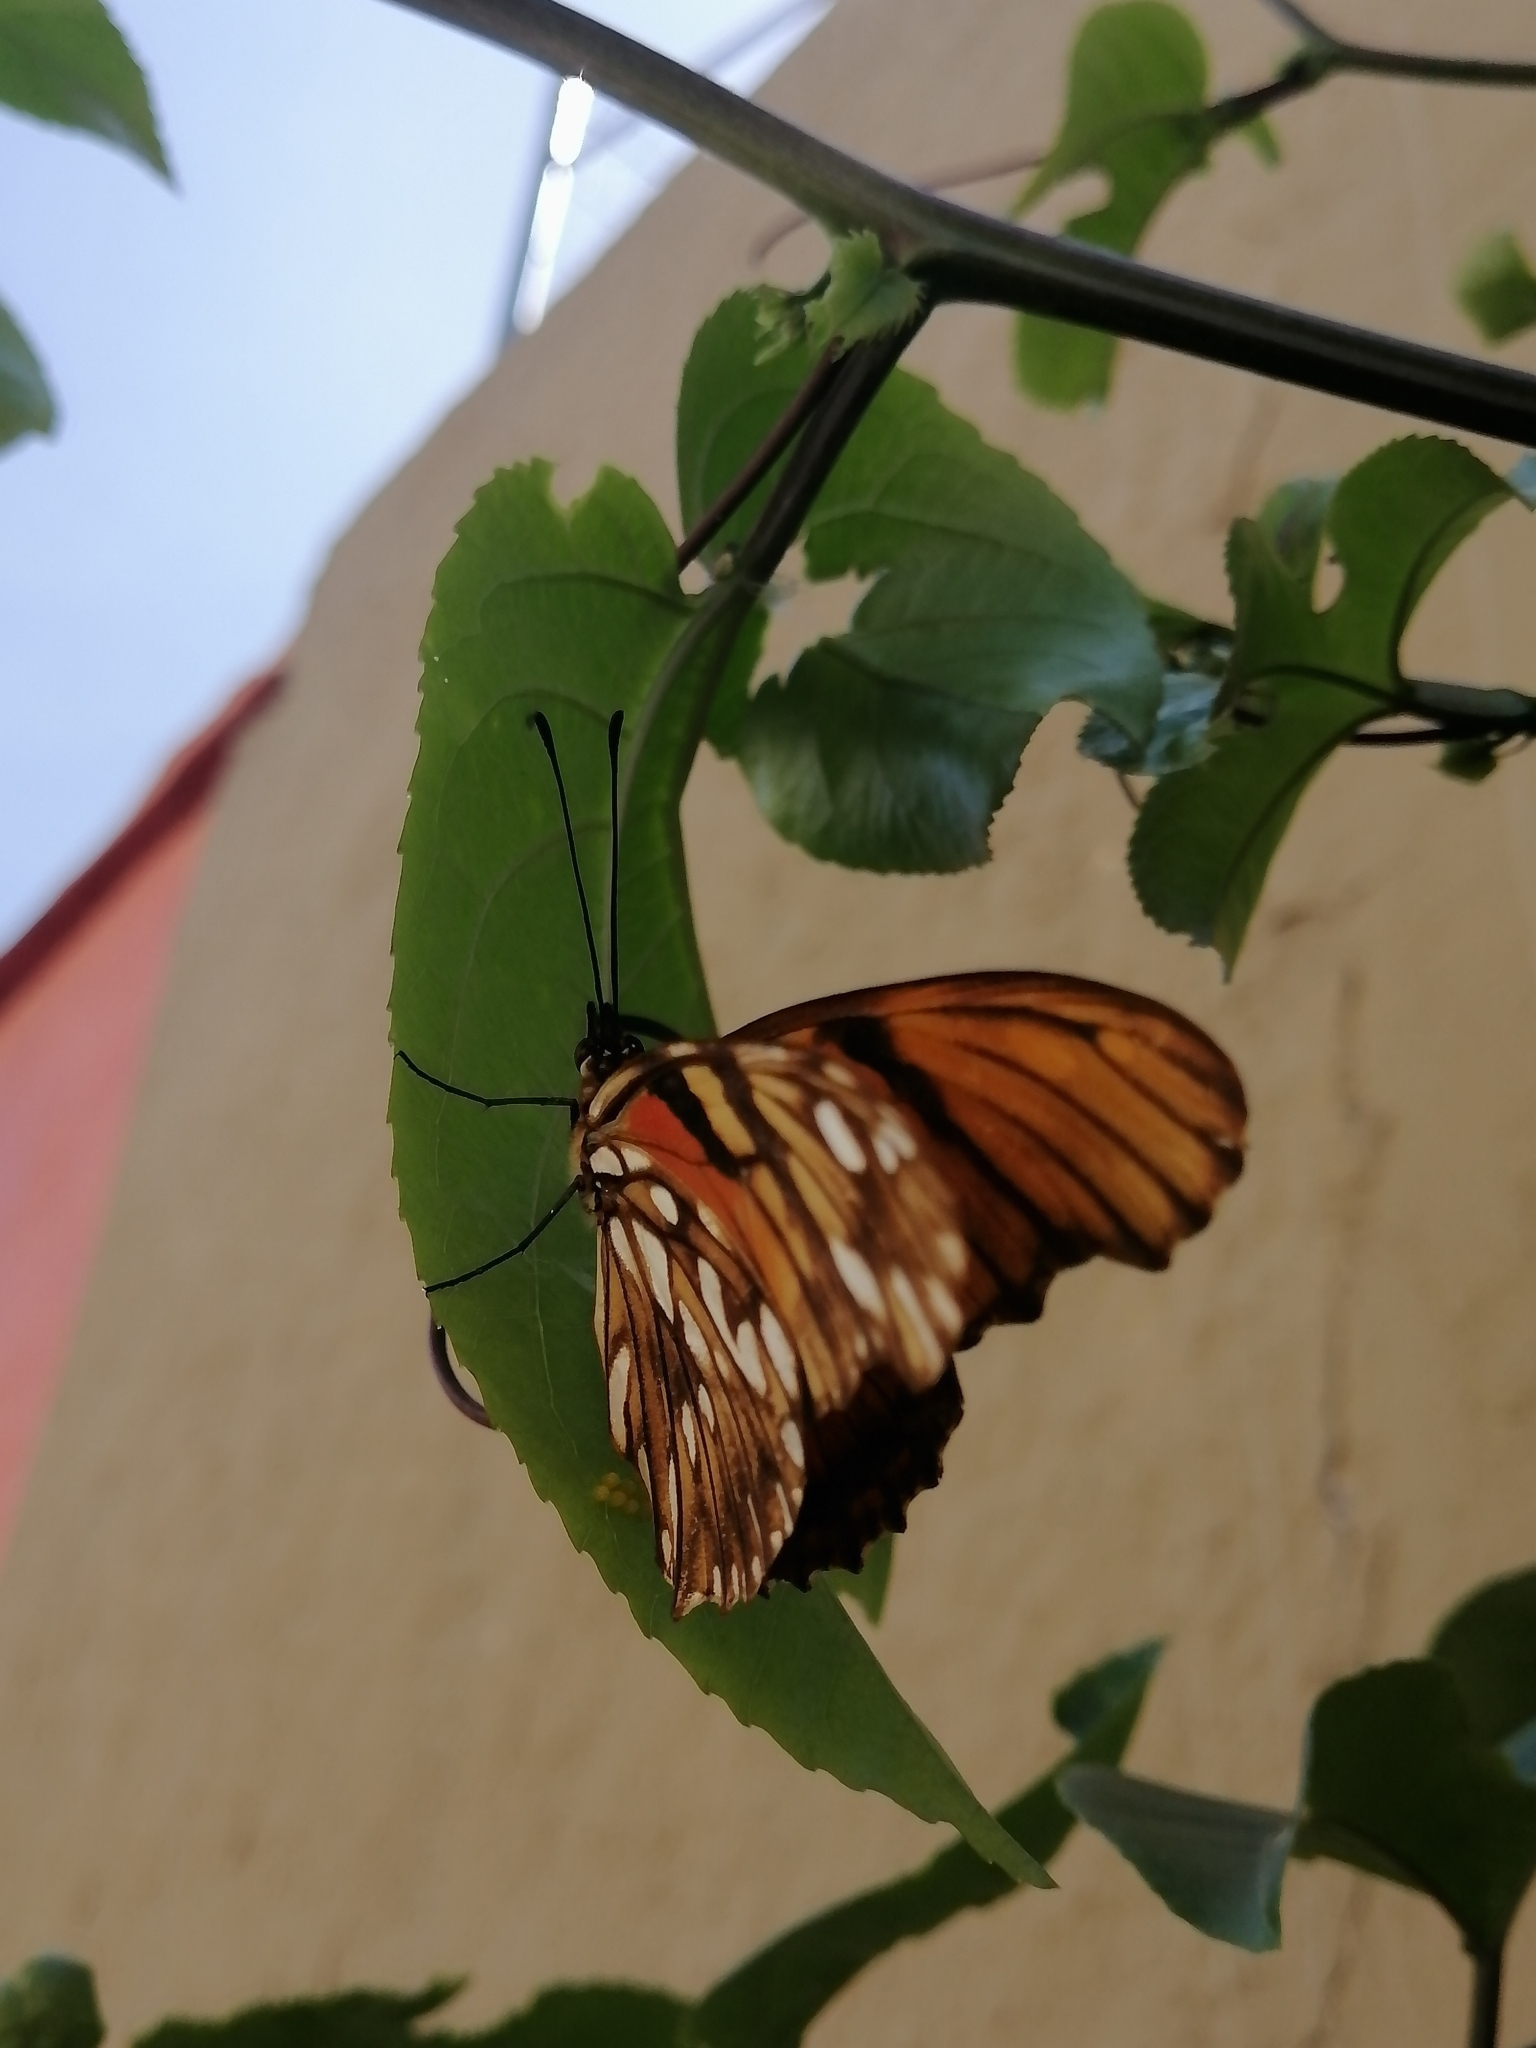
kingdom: Animalia
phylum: Arthropoda
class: Insecta
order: Lepidoptera
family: Nymphalidae
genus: Dione
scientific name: Dione juno
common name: Juno silverspot
